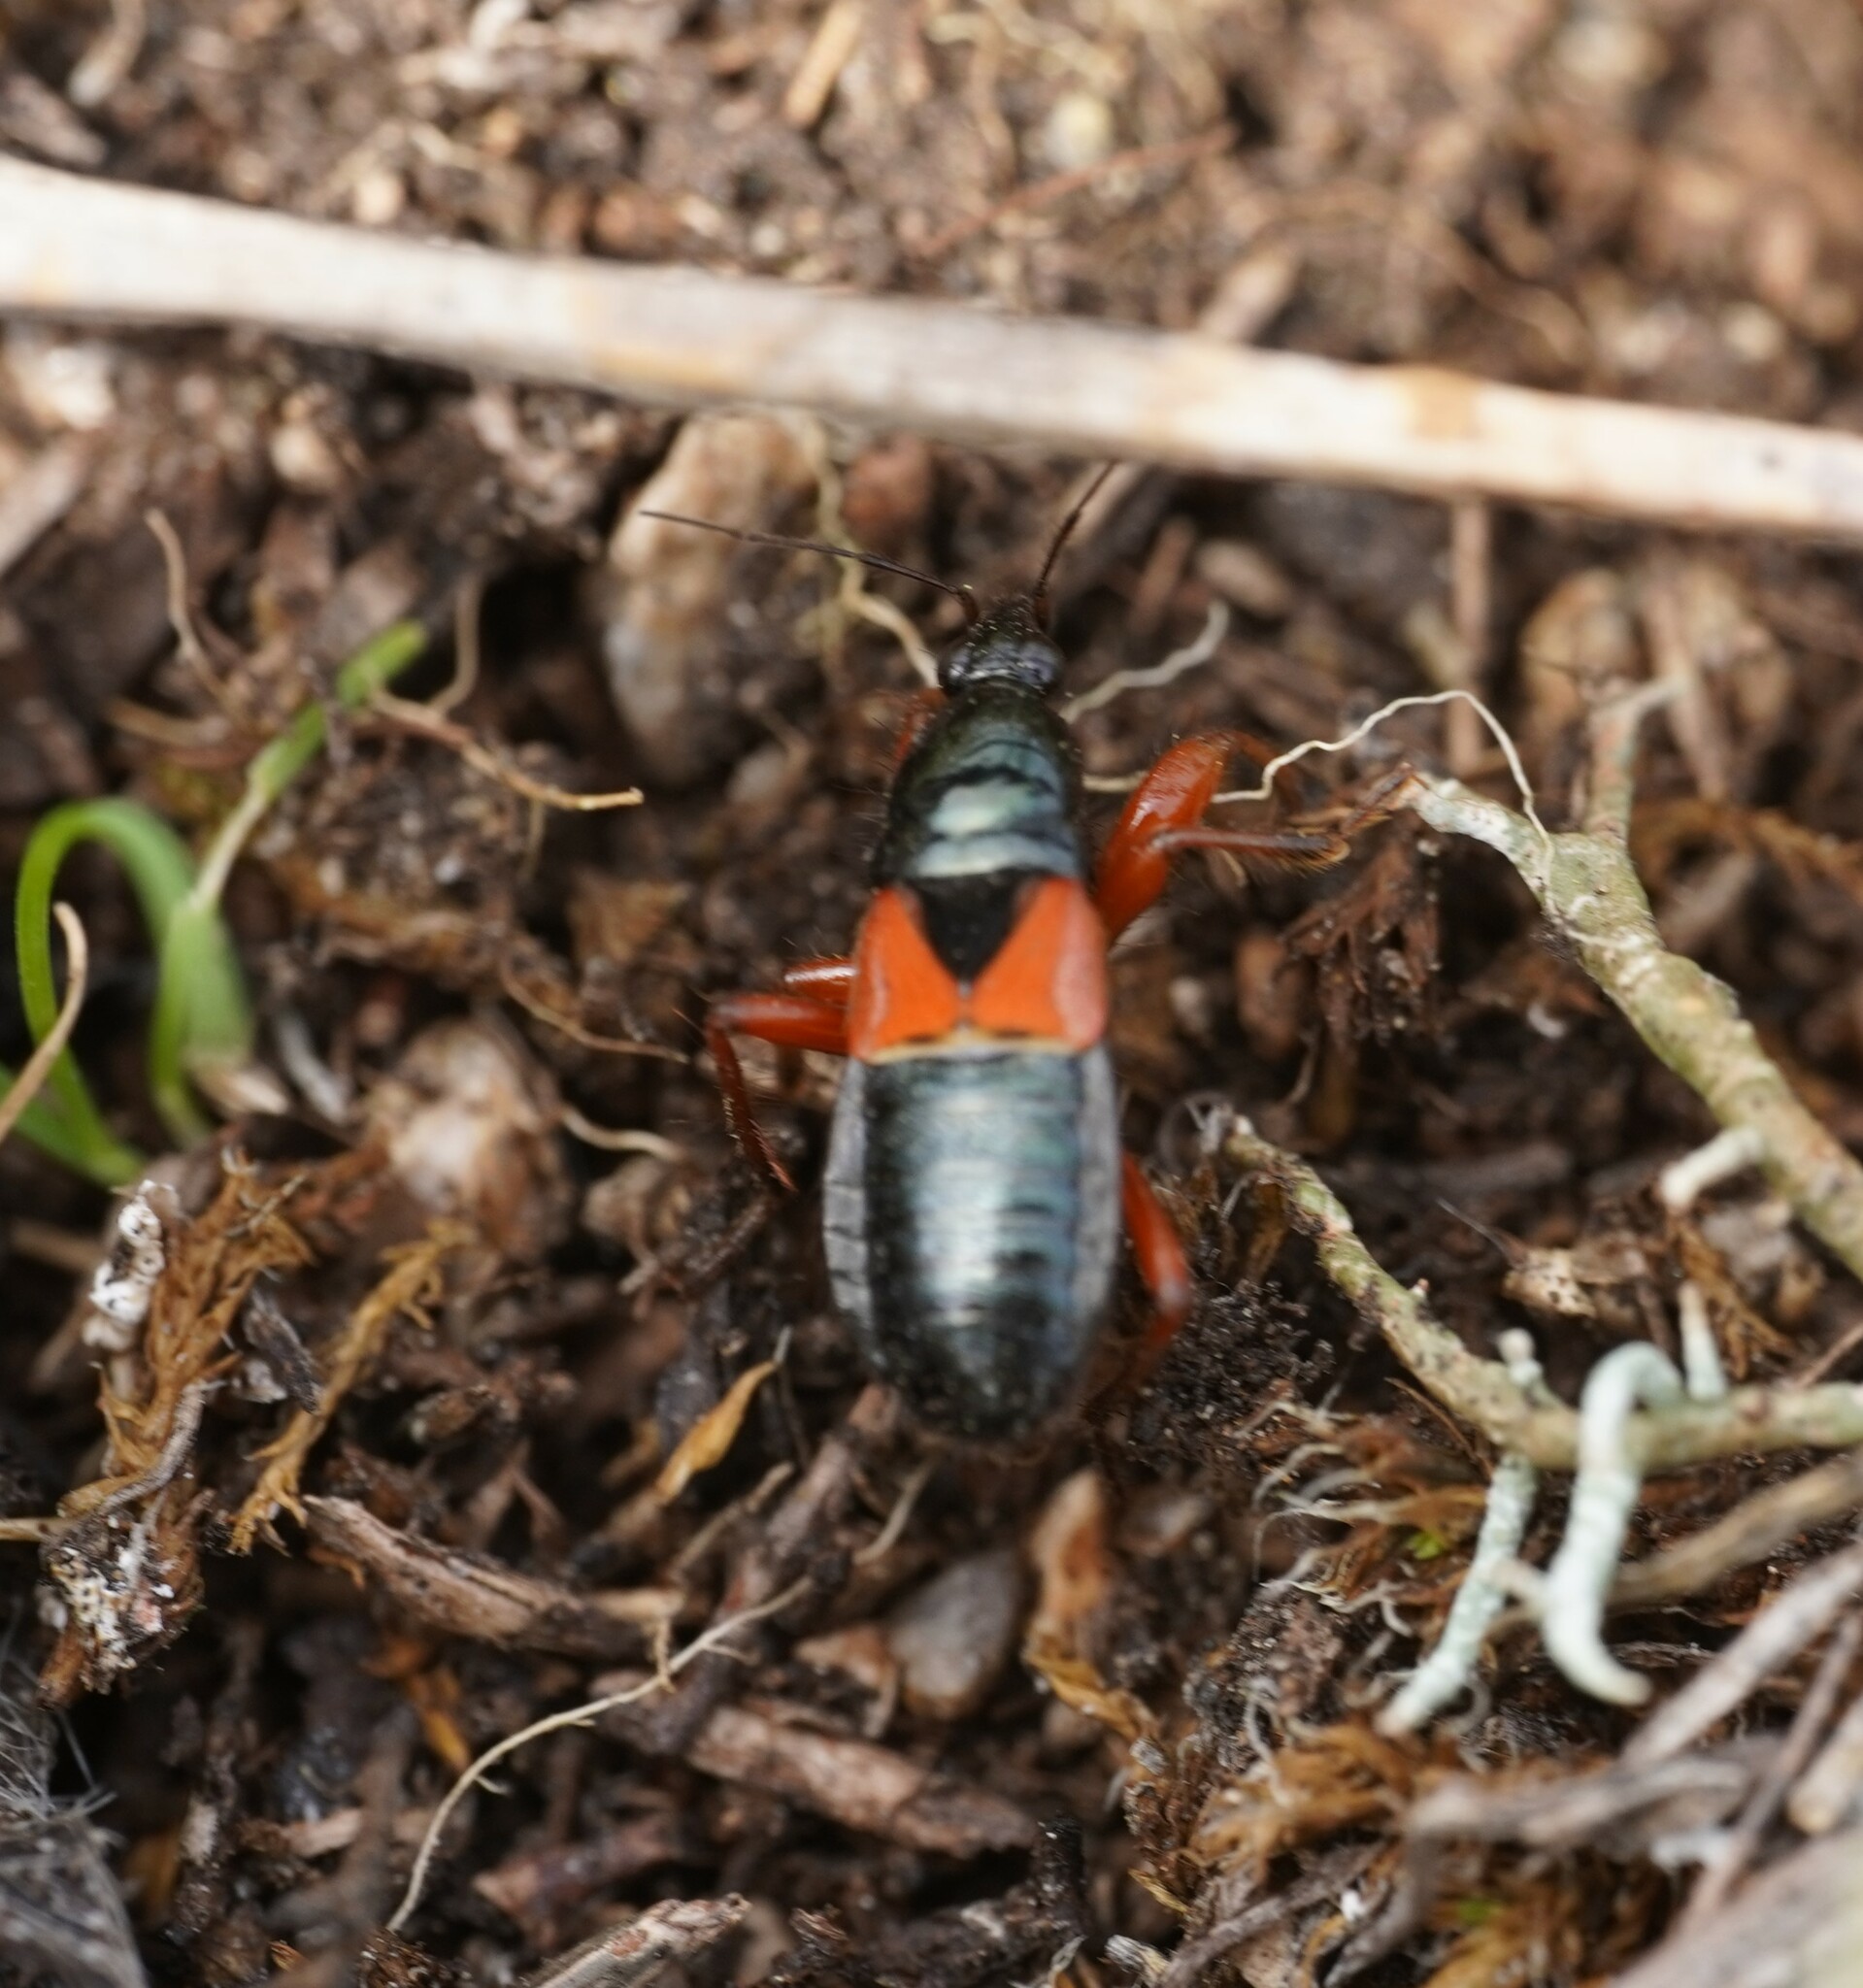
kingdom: Animalia
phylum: Arthropoda
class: Insecta
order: Hemiptera
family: Nabidae
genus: Prostemma
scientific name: Prostemma guttula
